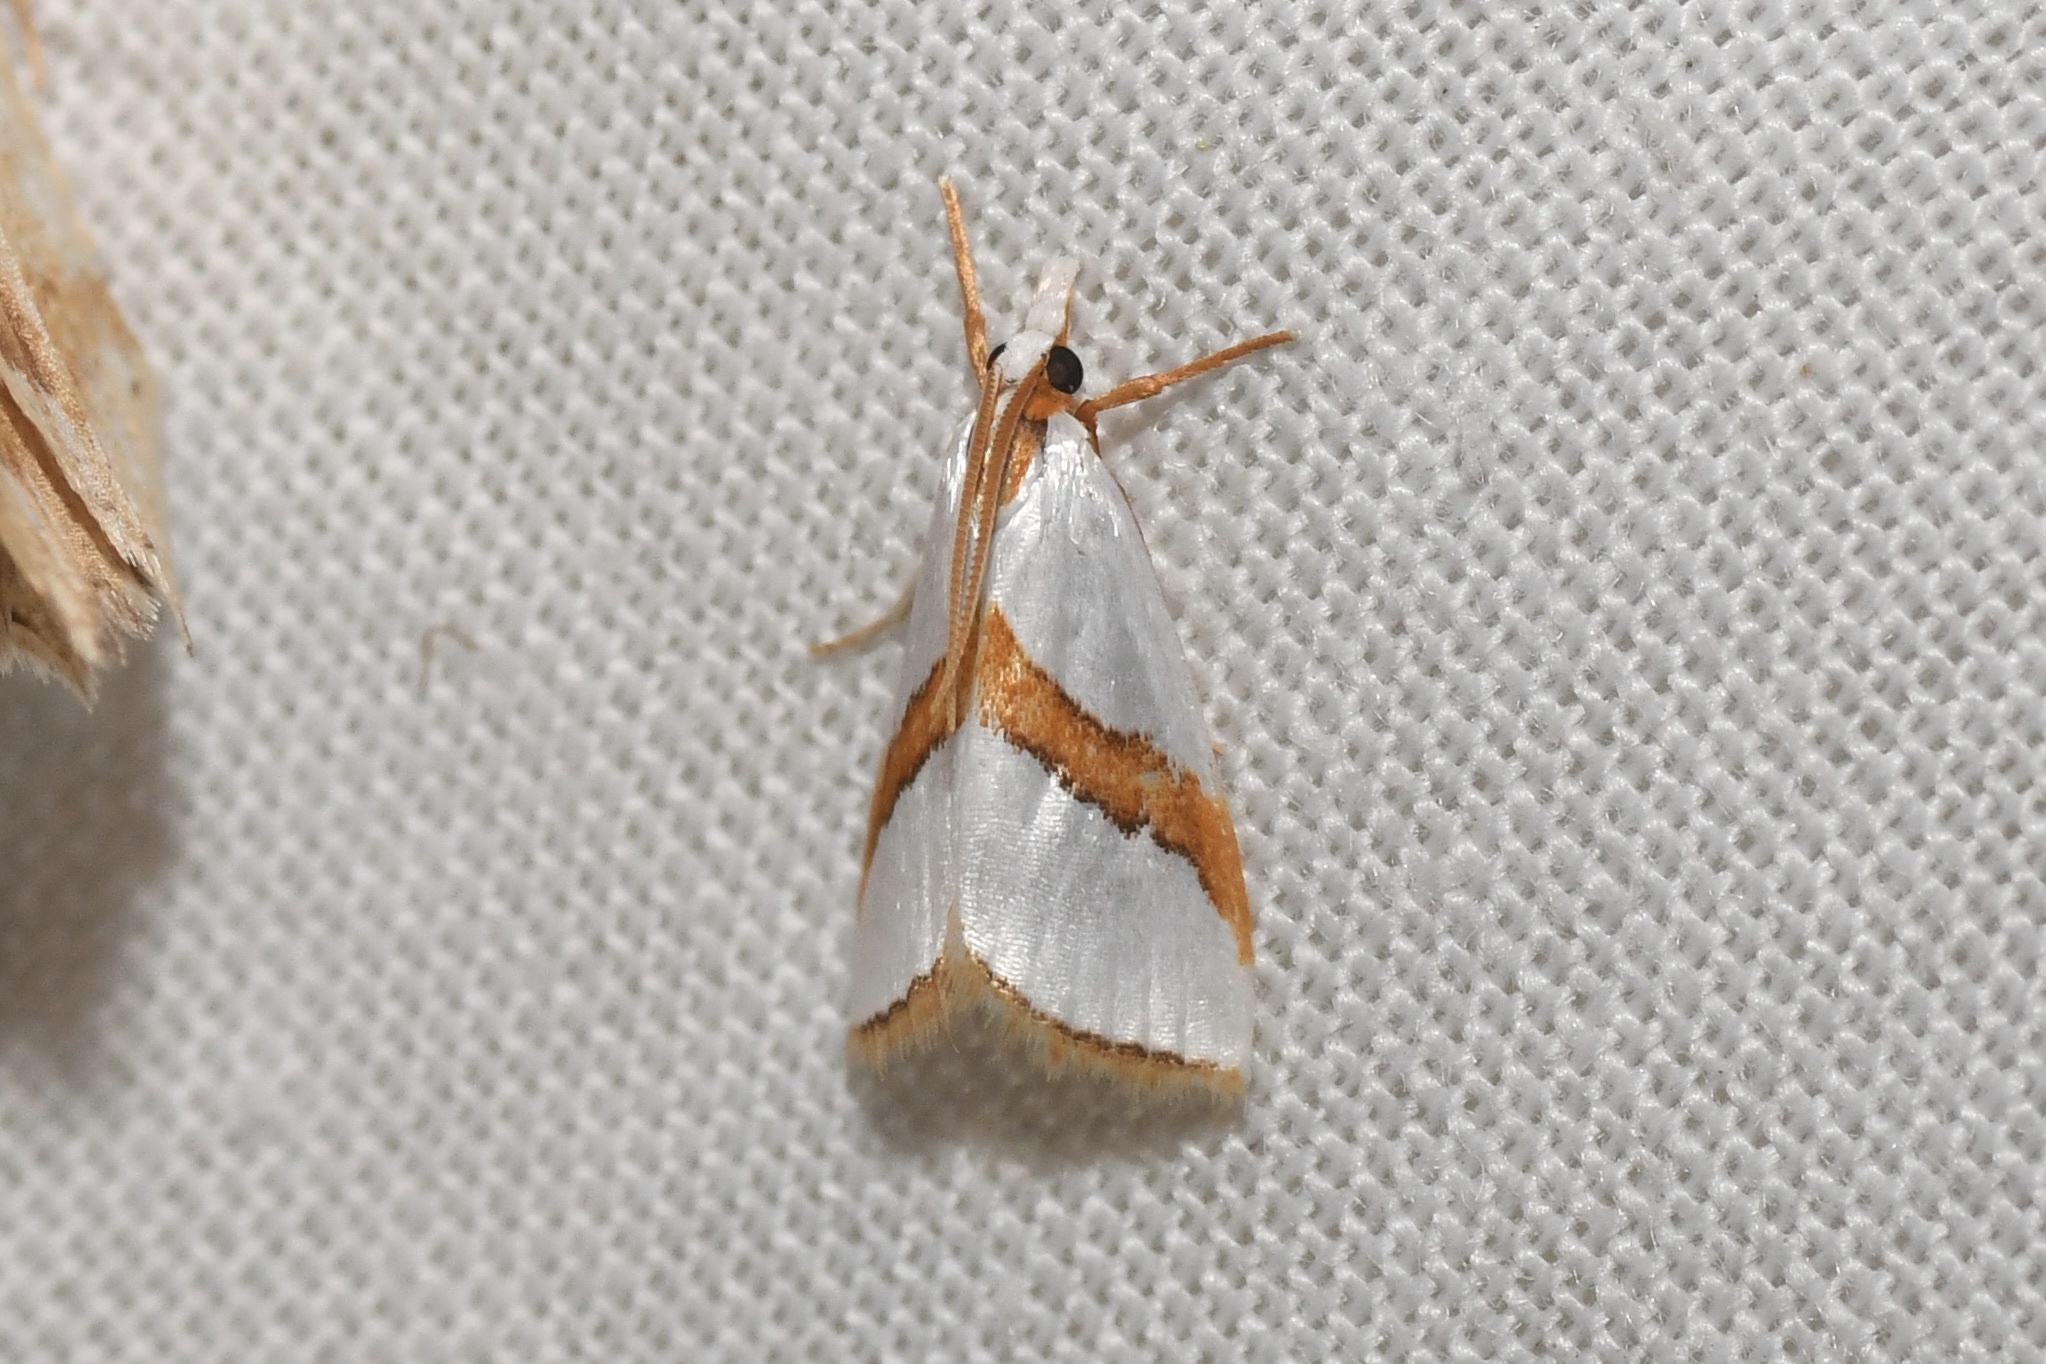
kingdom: Animalia
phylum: Arthropoda
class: Insecta
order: Lepidoptera
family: Crambidae
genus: Vaxi
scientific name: Vaxi critica
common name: Straight-lined vaxi moth
